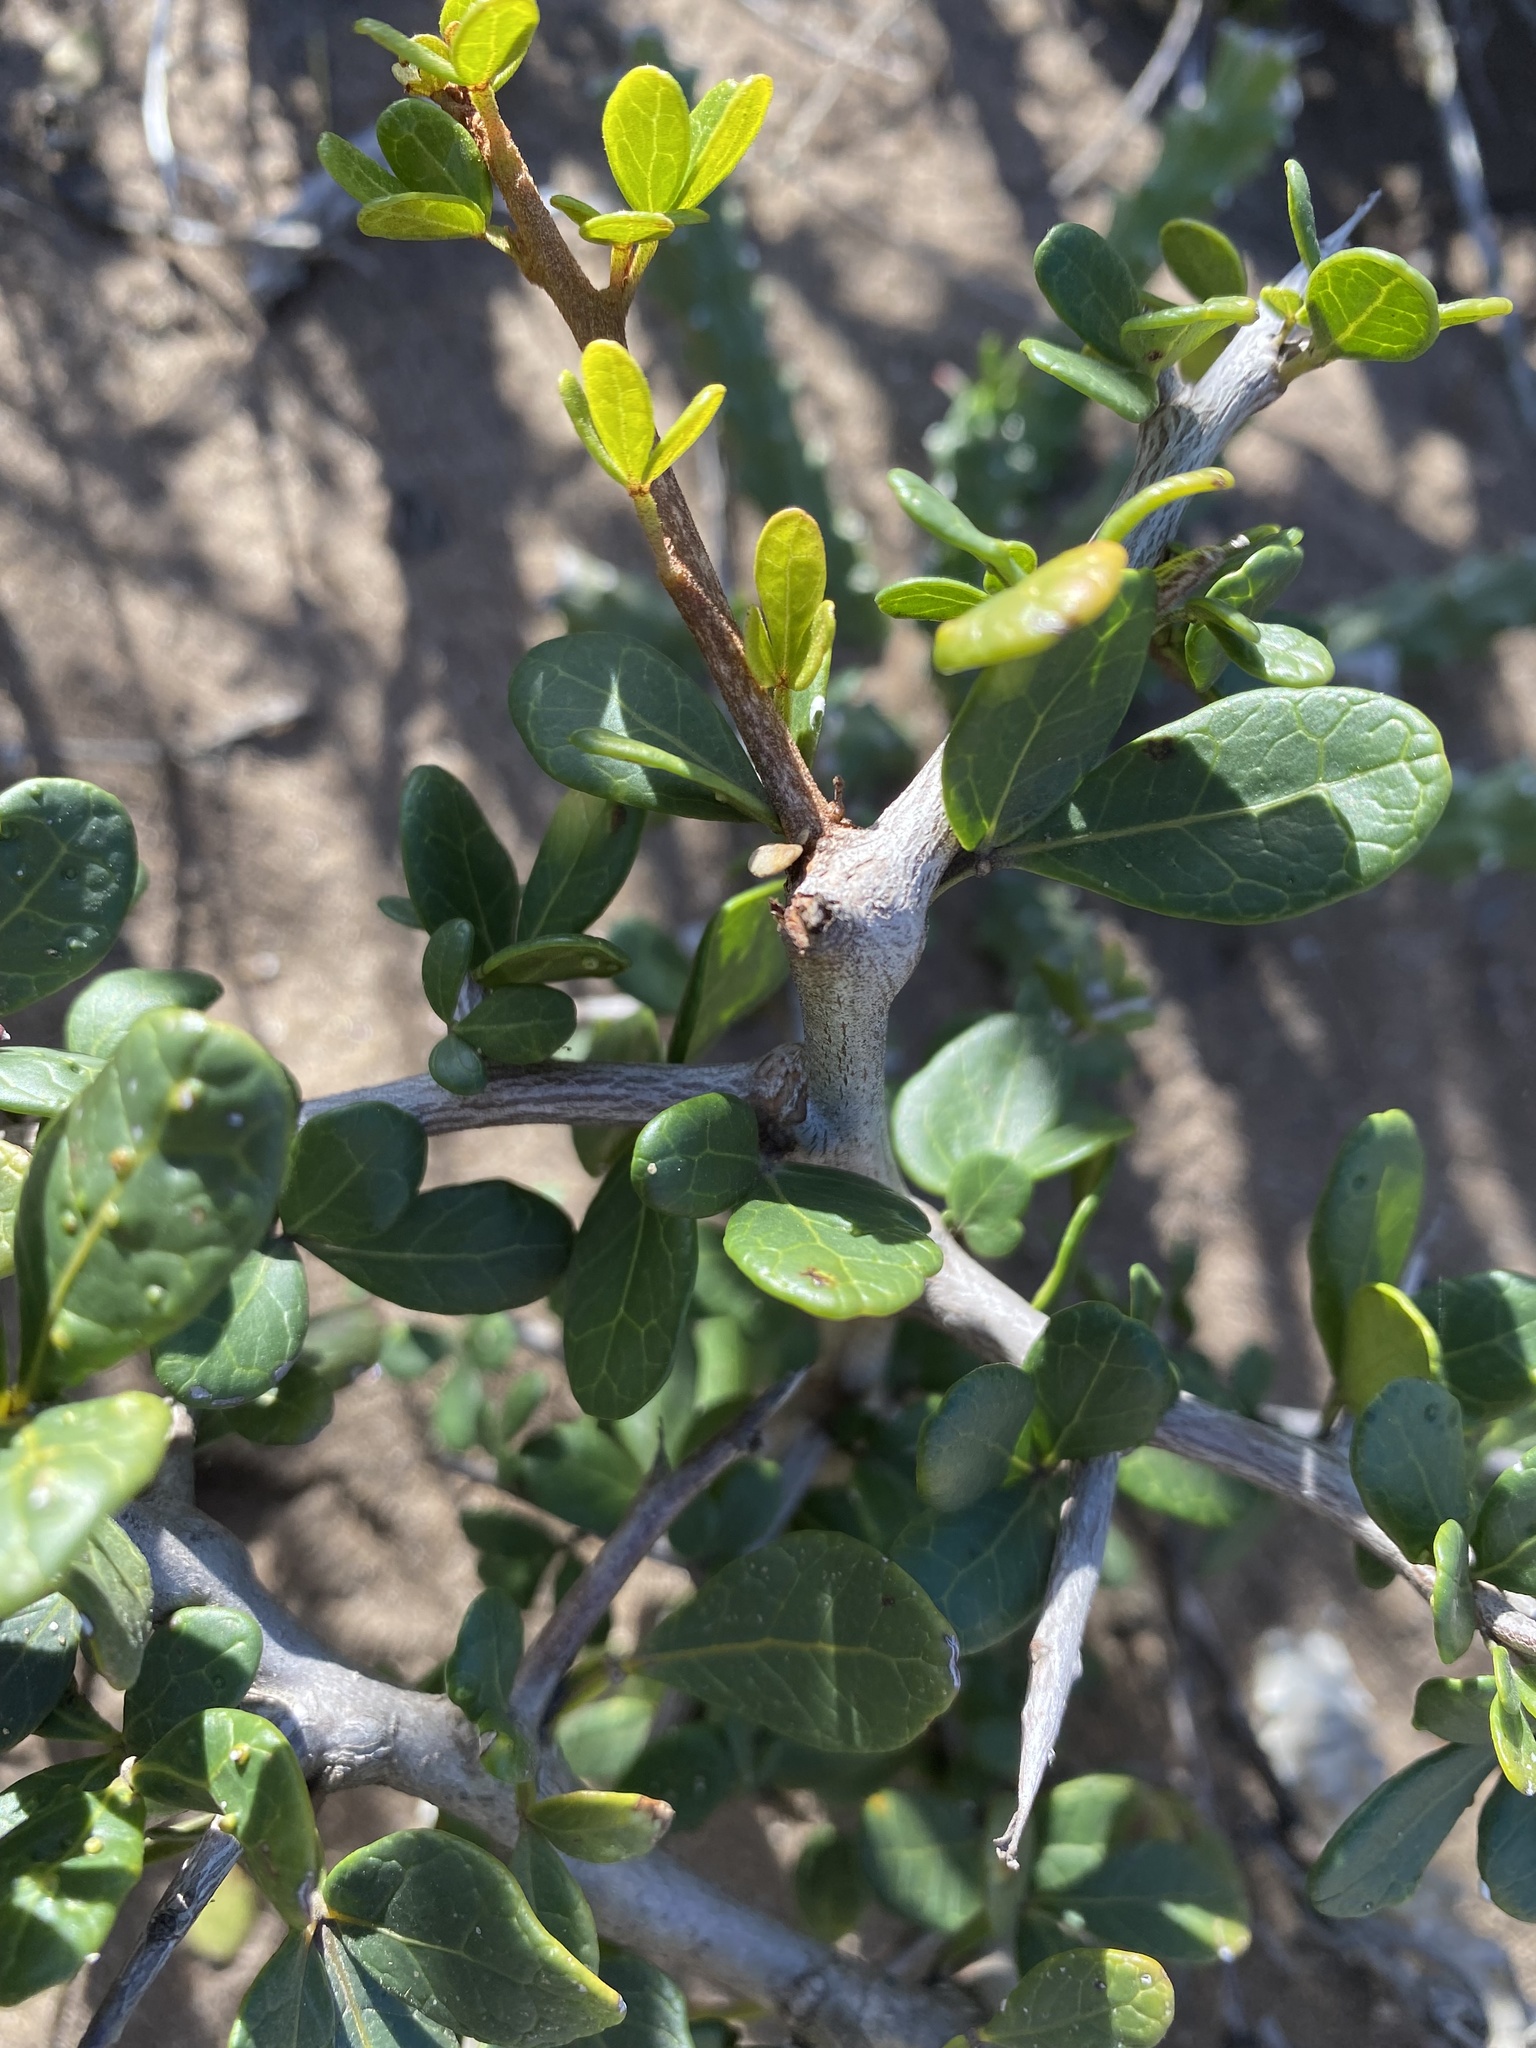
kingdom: Plantae
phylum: Tracheophyta
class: Magnoliopsida
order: Sapindales
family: Anacardiaceae
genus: Searsia
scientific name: Searsia pterota
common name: Winged currant
